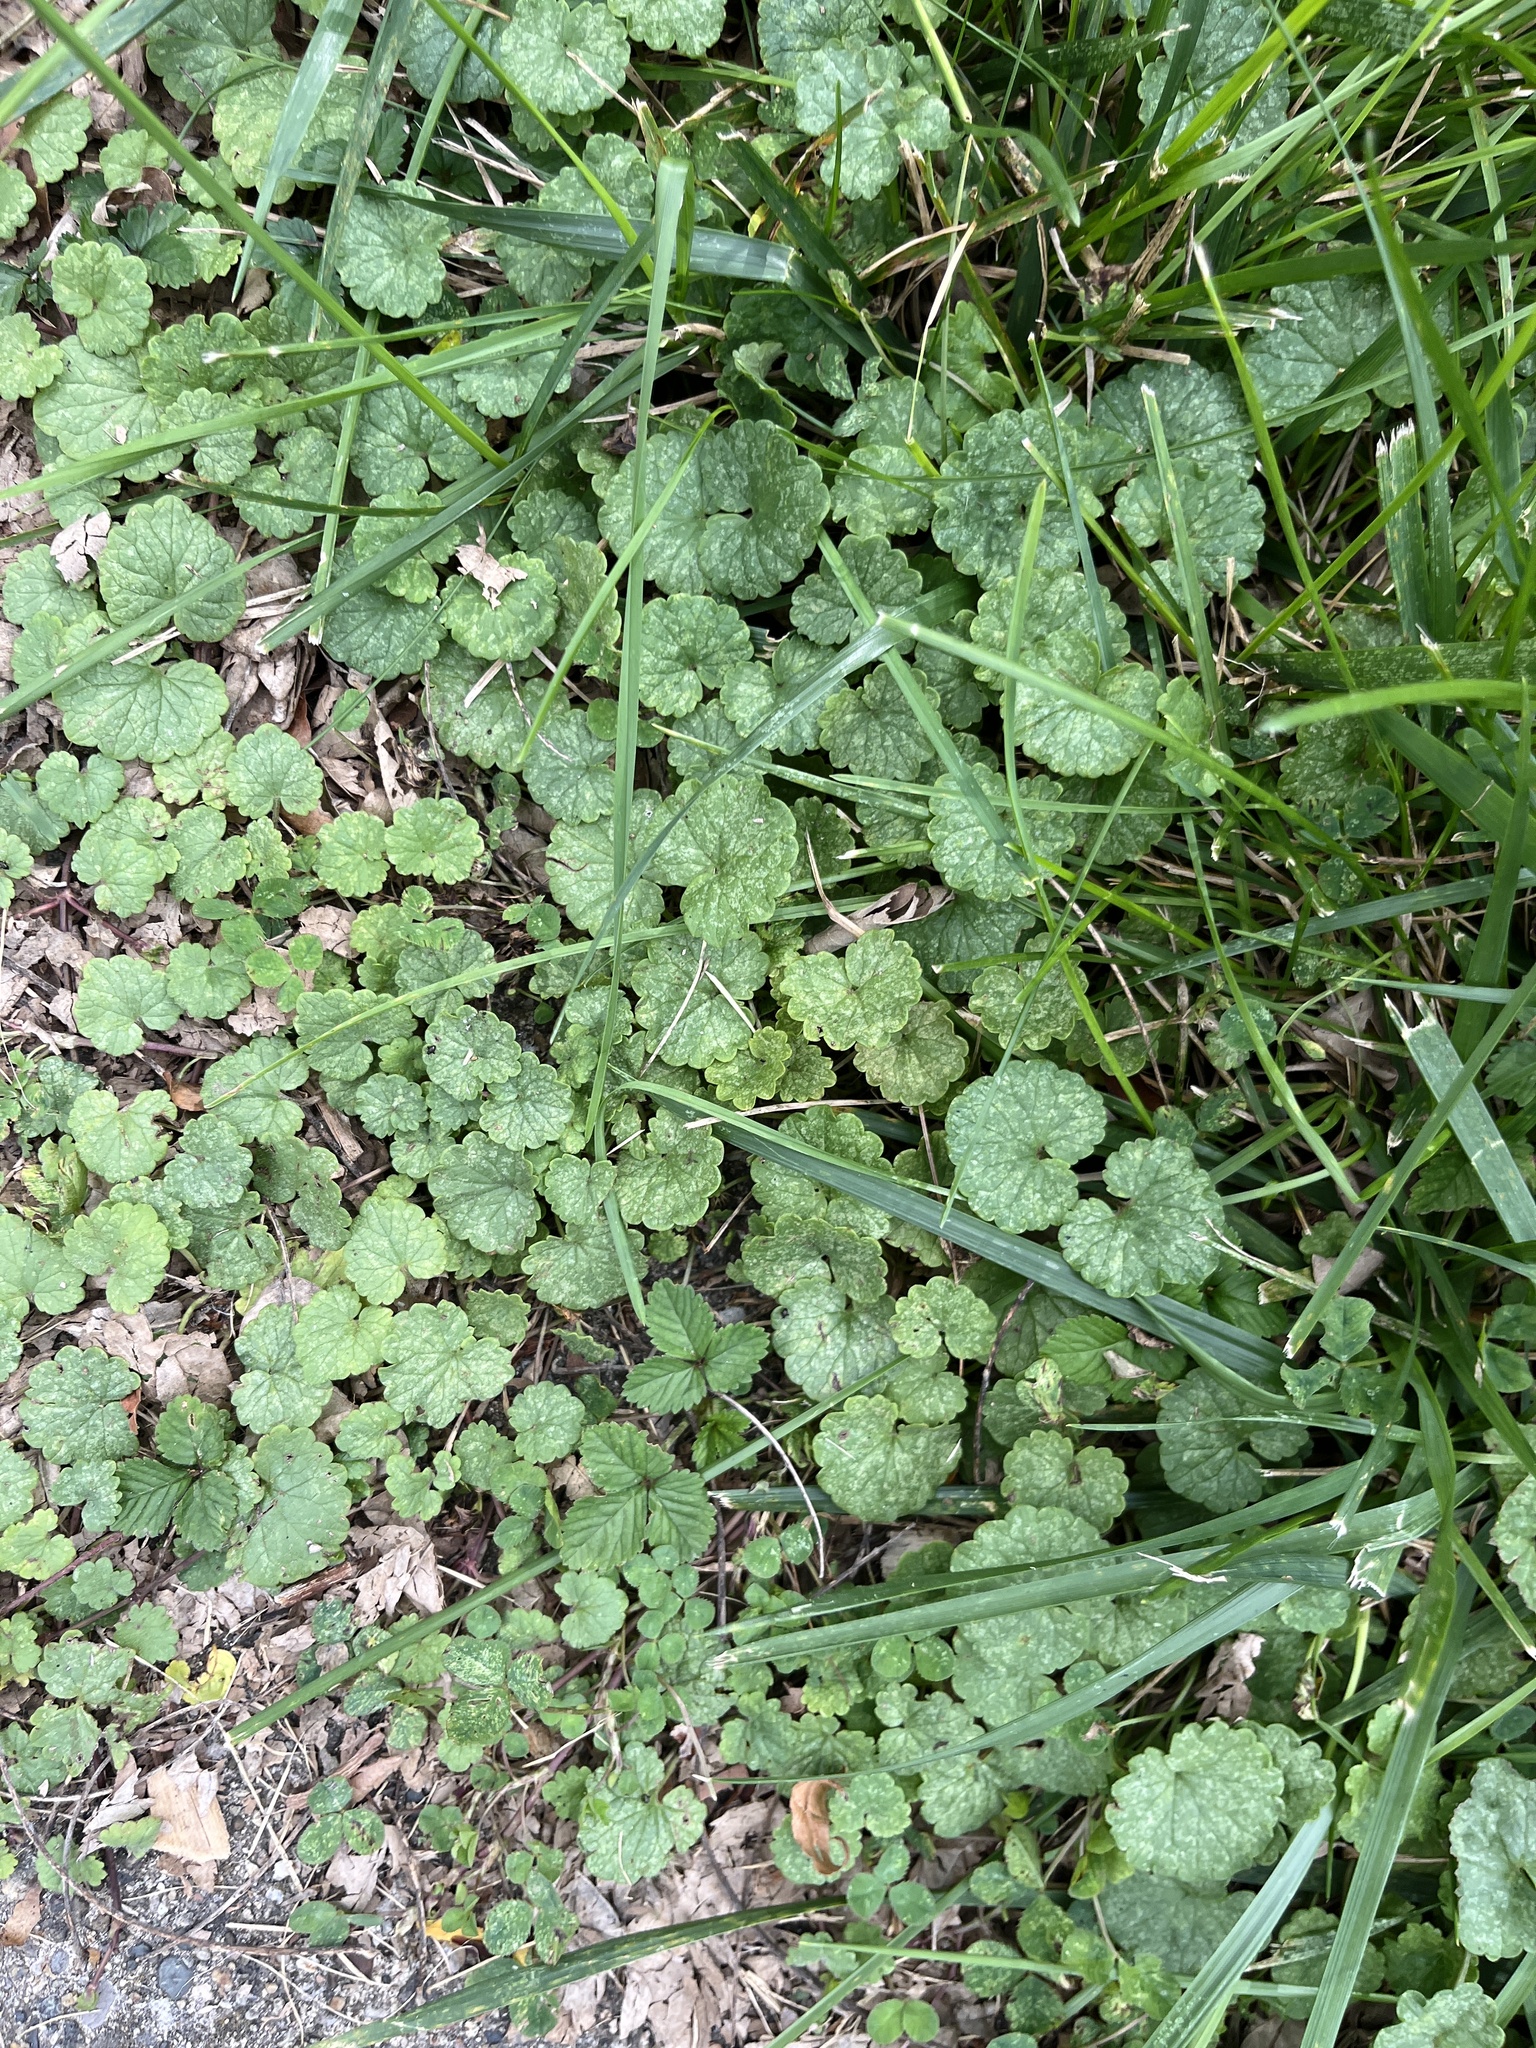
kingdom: Plantae
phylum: Tracheophyta
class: Magnoliopsida
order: Lamiales
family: Lamiaceae
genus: Glechoma
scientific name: Glechoma hederacea
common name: Ground ivy
